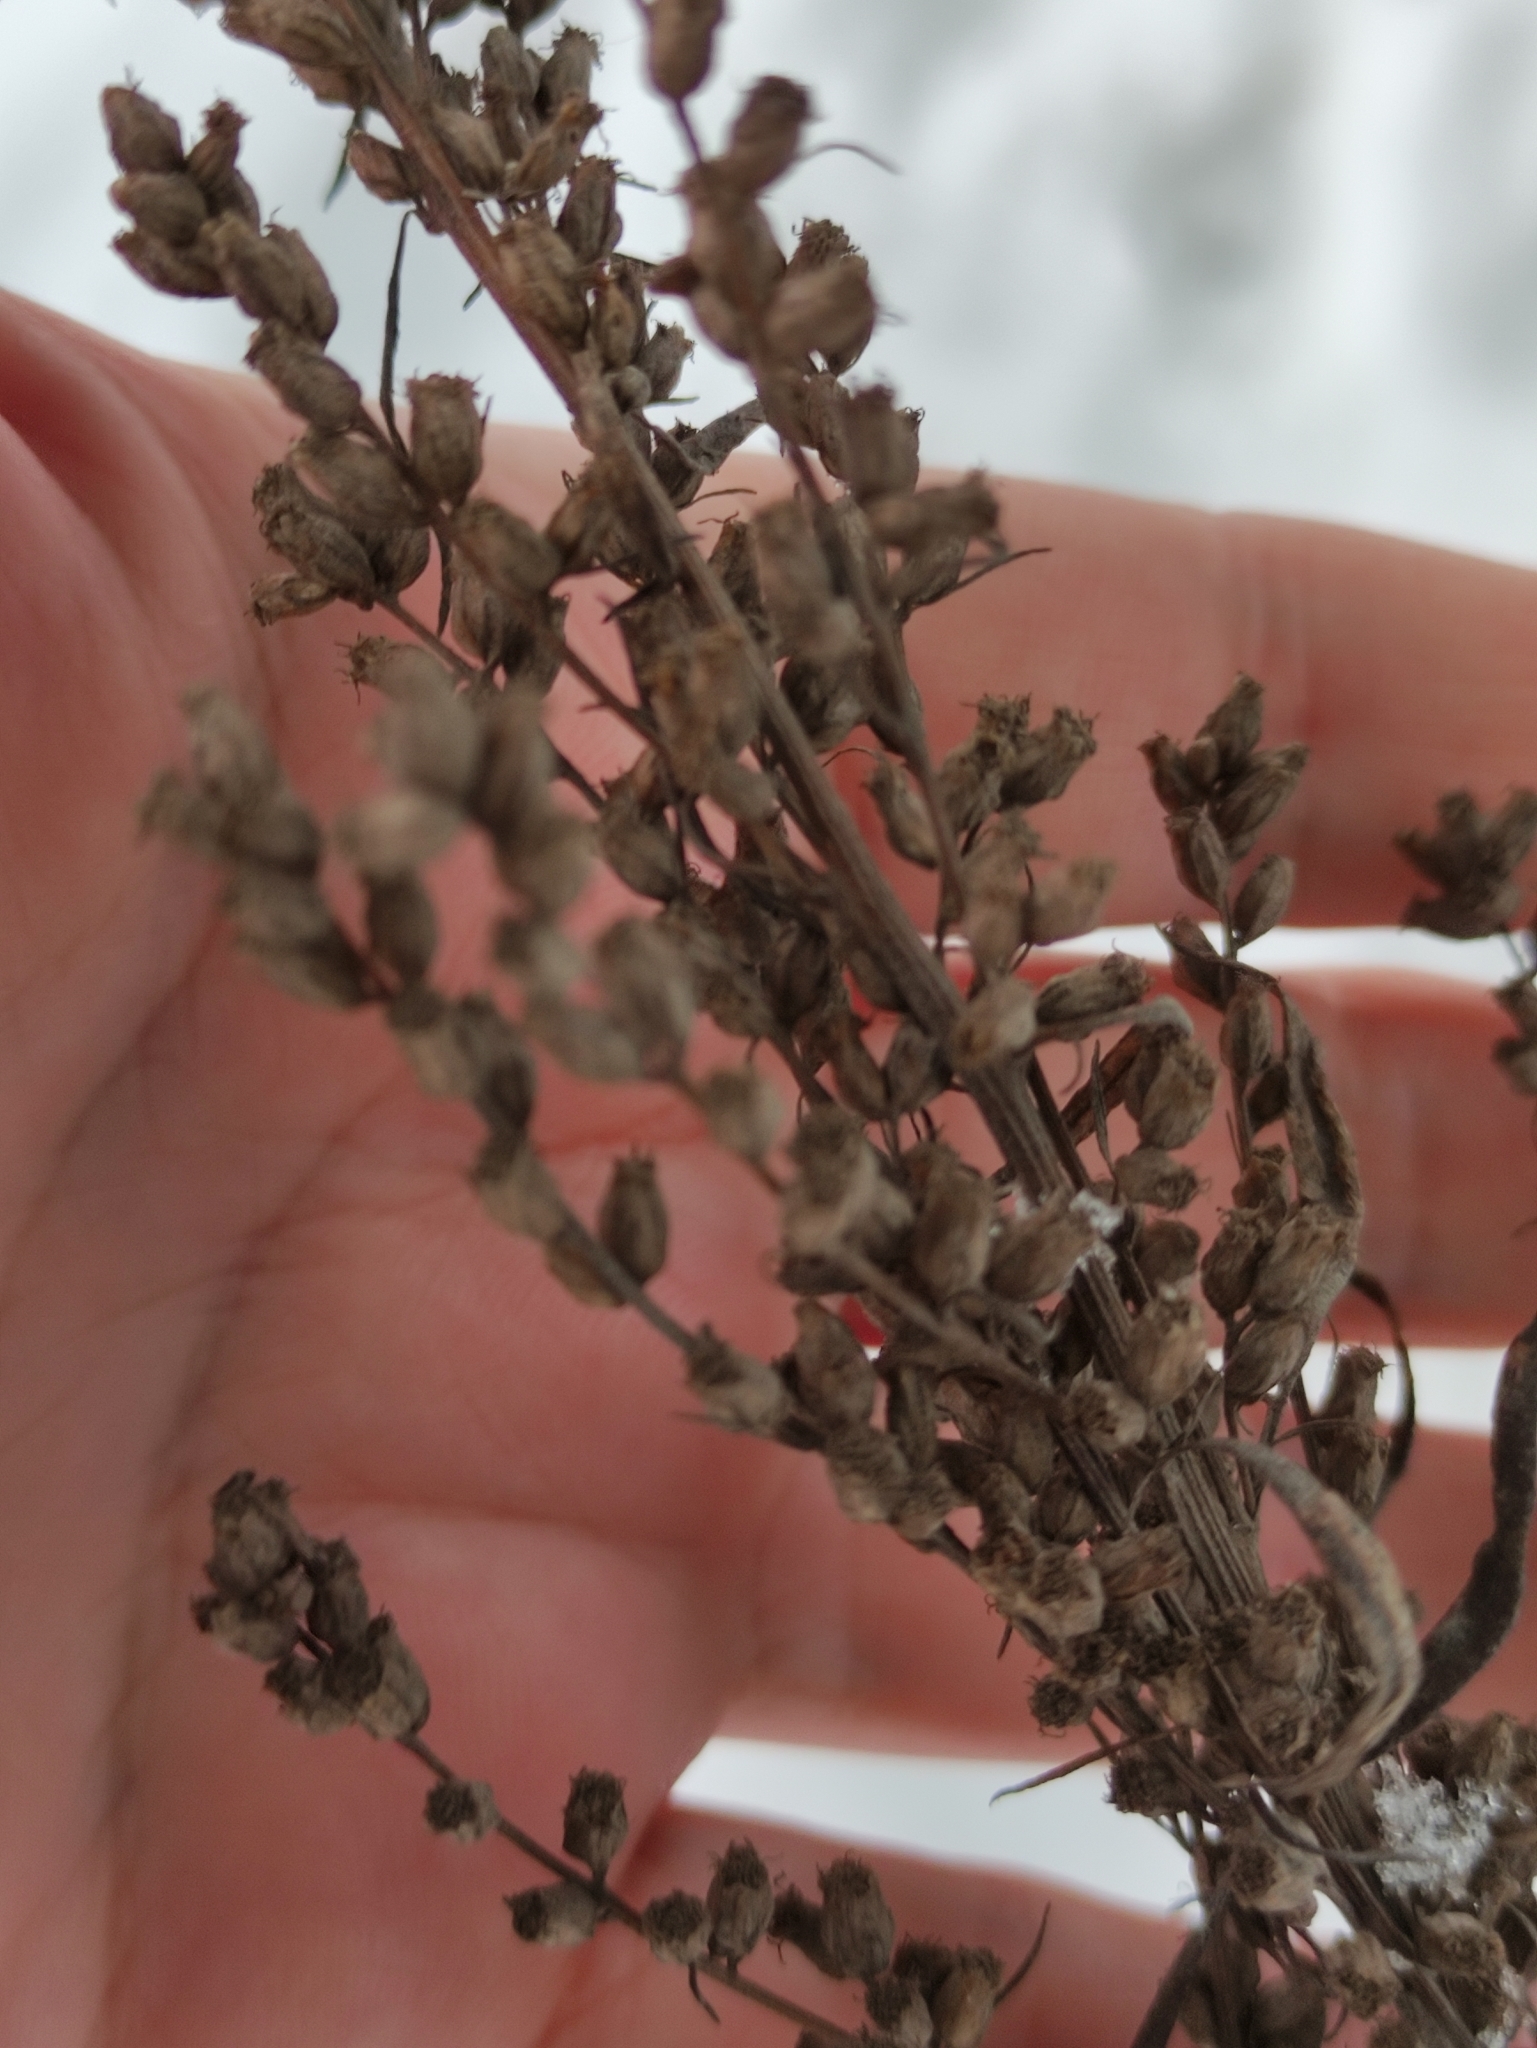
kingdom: Plantae
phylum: Tracheophyta
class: Magnoliopsida
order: Asterales
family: Asteraceae
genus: Artemisia
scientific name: Artemisia vulgaris
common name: Mugwort
